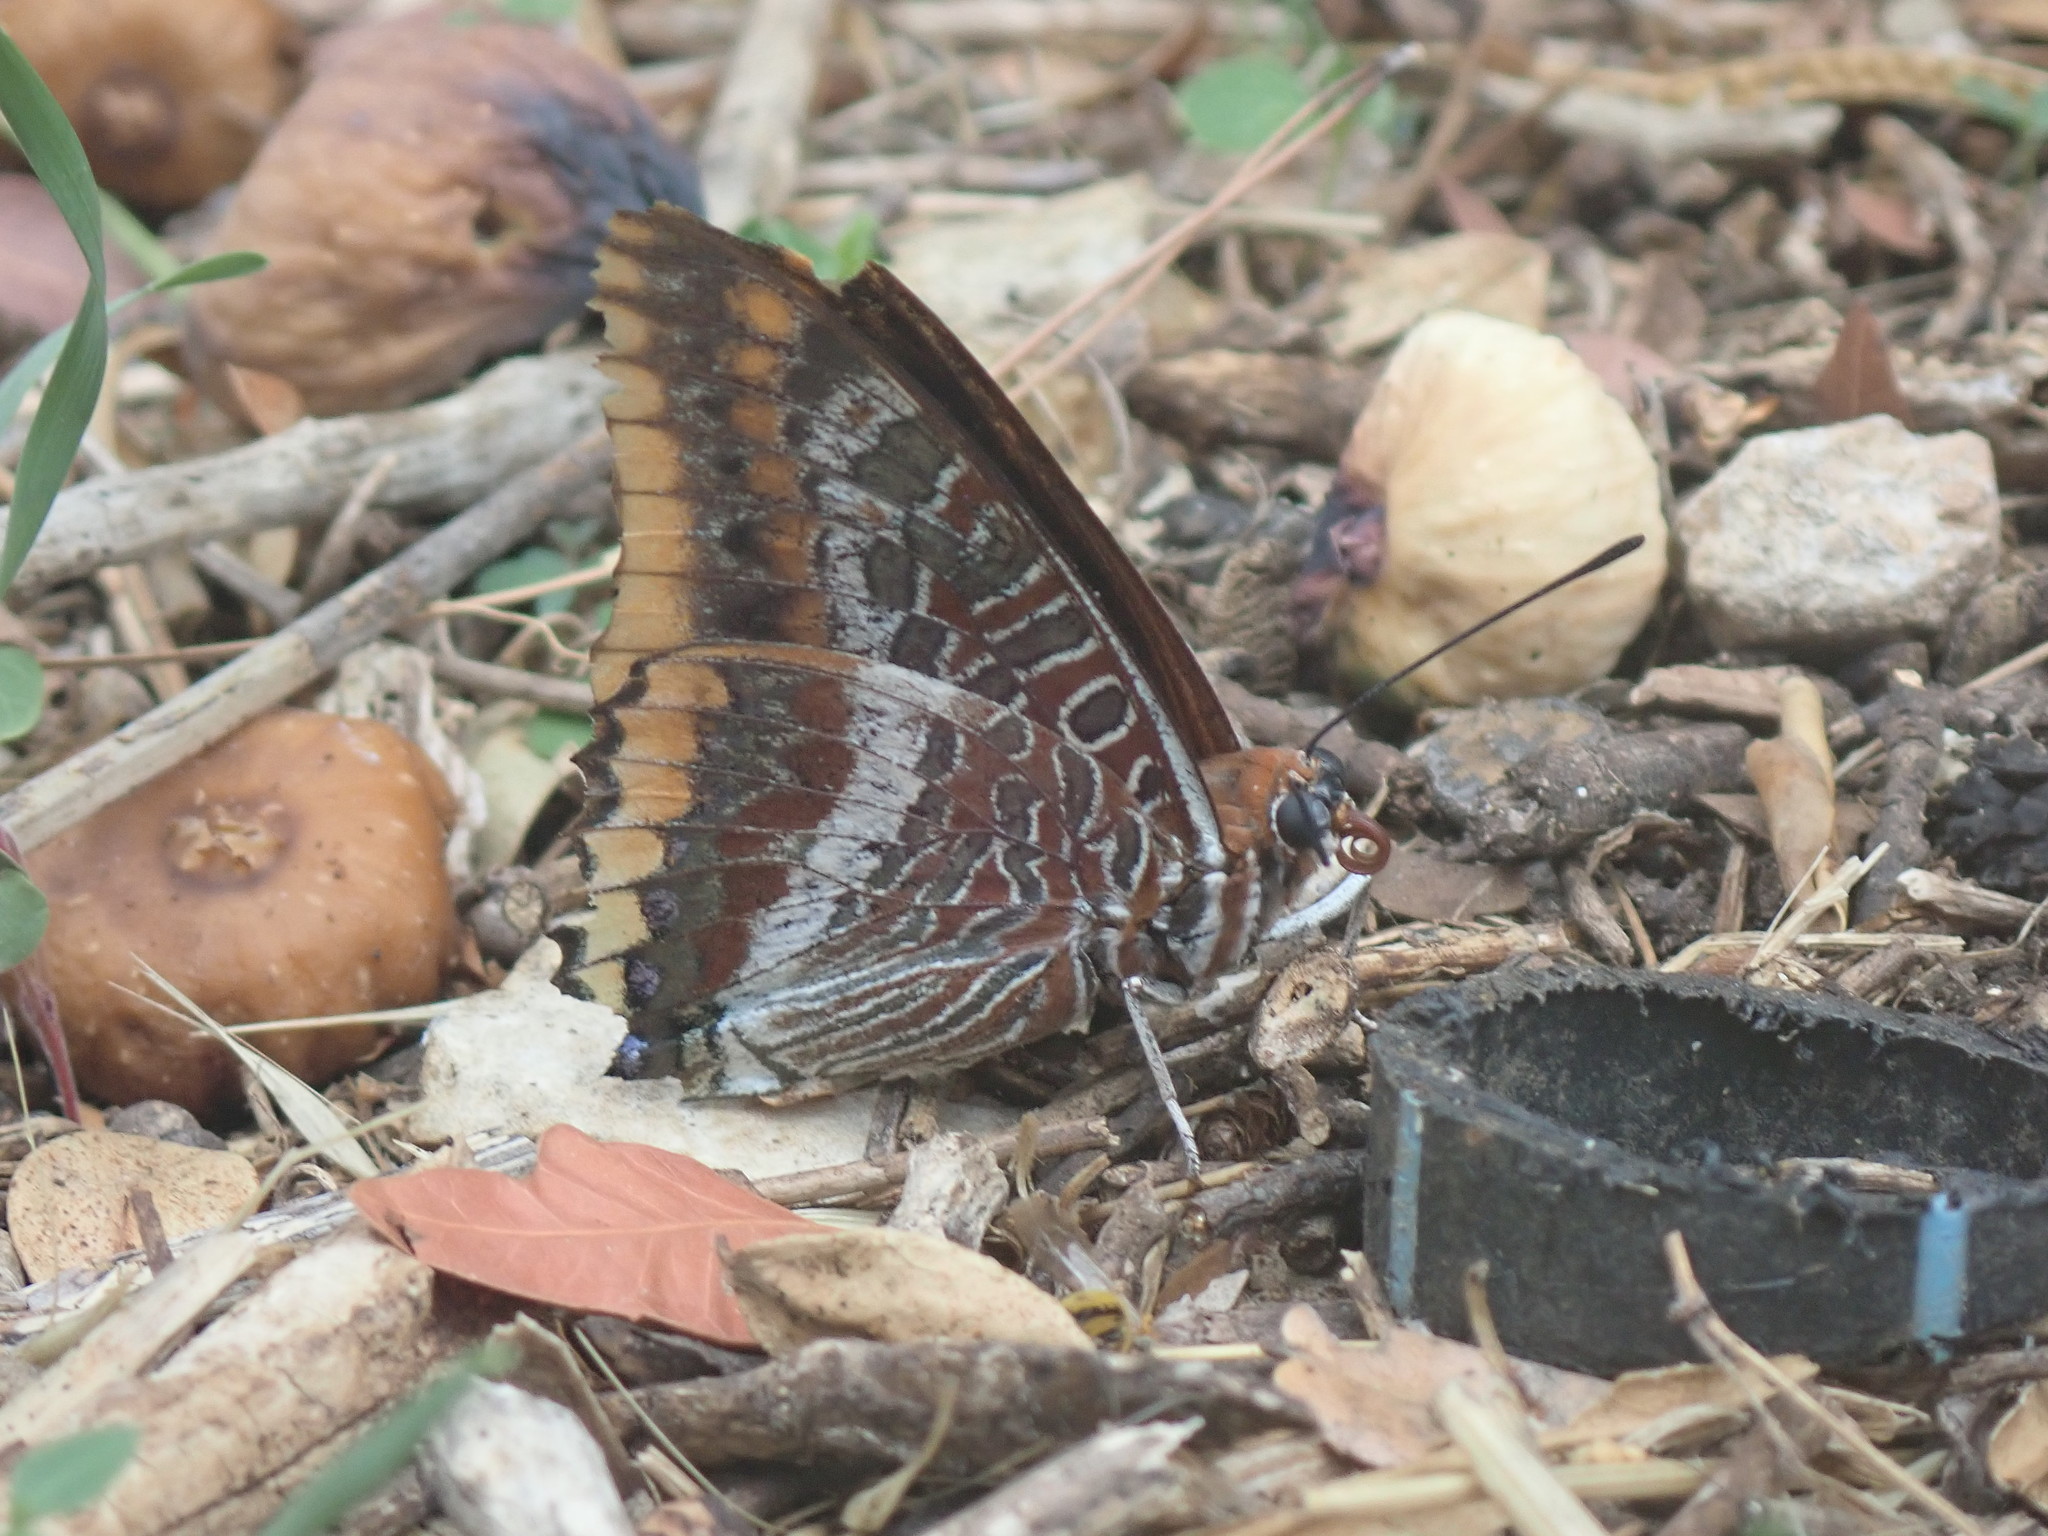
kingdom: Animalia
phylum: Arthropoda
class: Insecta
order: Lepidoptera
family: Nymphalidae
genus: Charaxes
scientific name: Charaxes jasius
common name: Two tailed pasha
